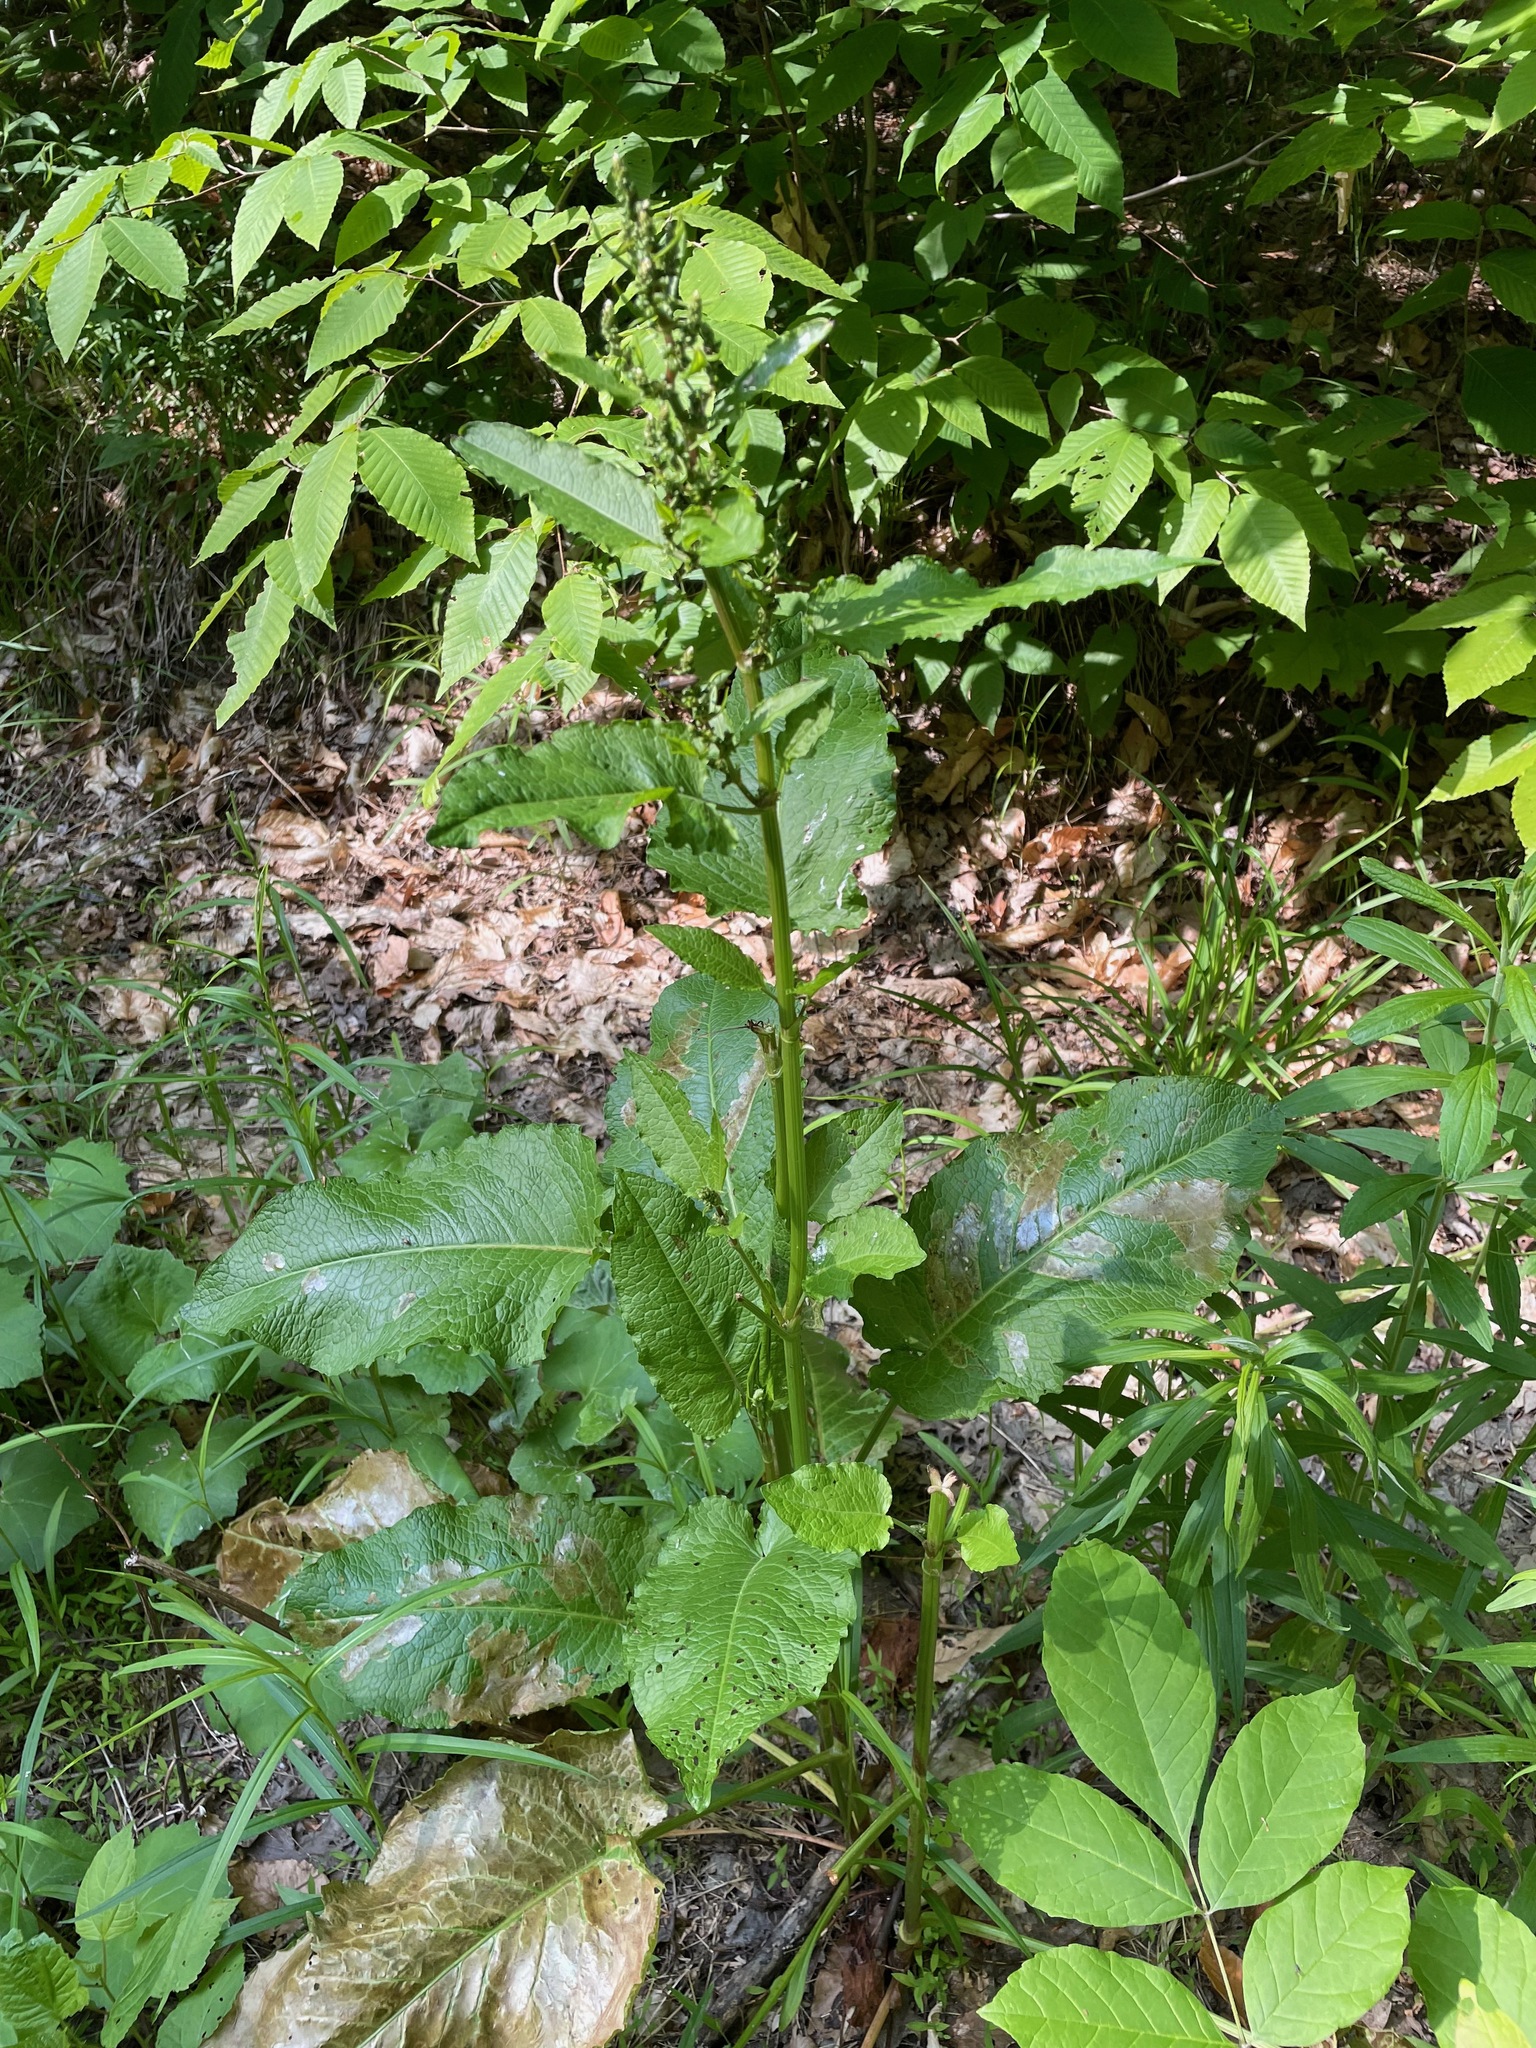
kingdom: Plantae
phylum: Tracheophyta
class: Magnoliopsida
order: Caryophyllales
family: Polygonaceae
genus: Rumex
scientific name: Rumex obtusifolius
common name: Bitter dock
